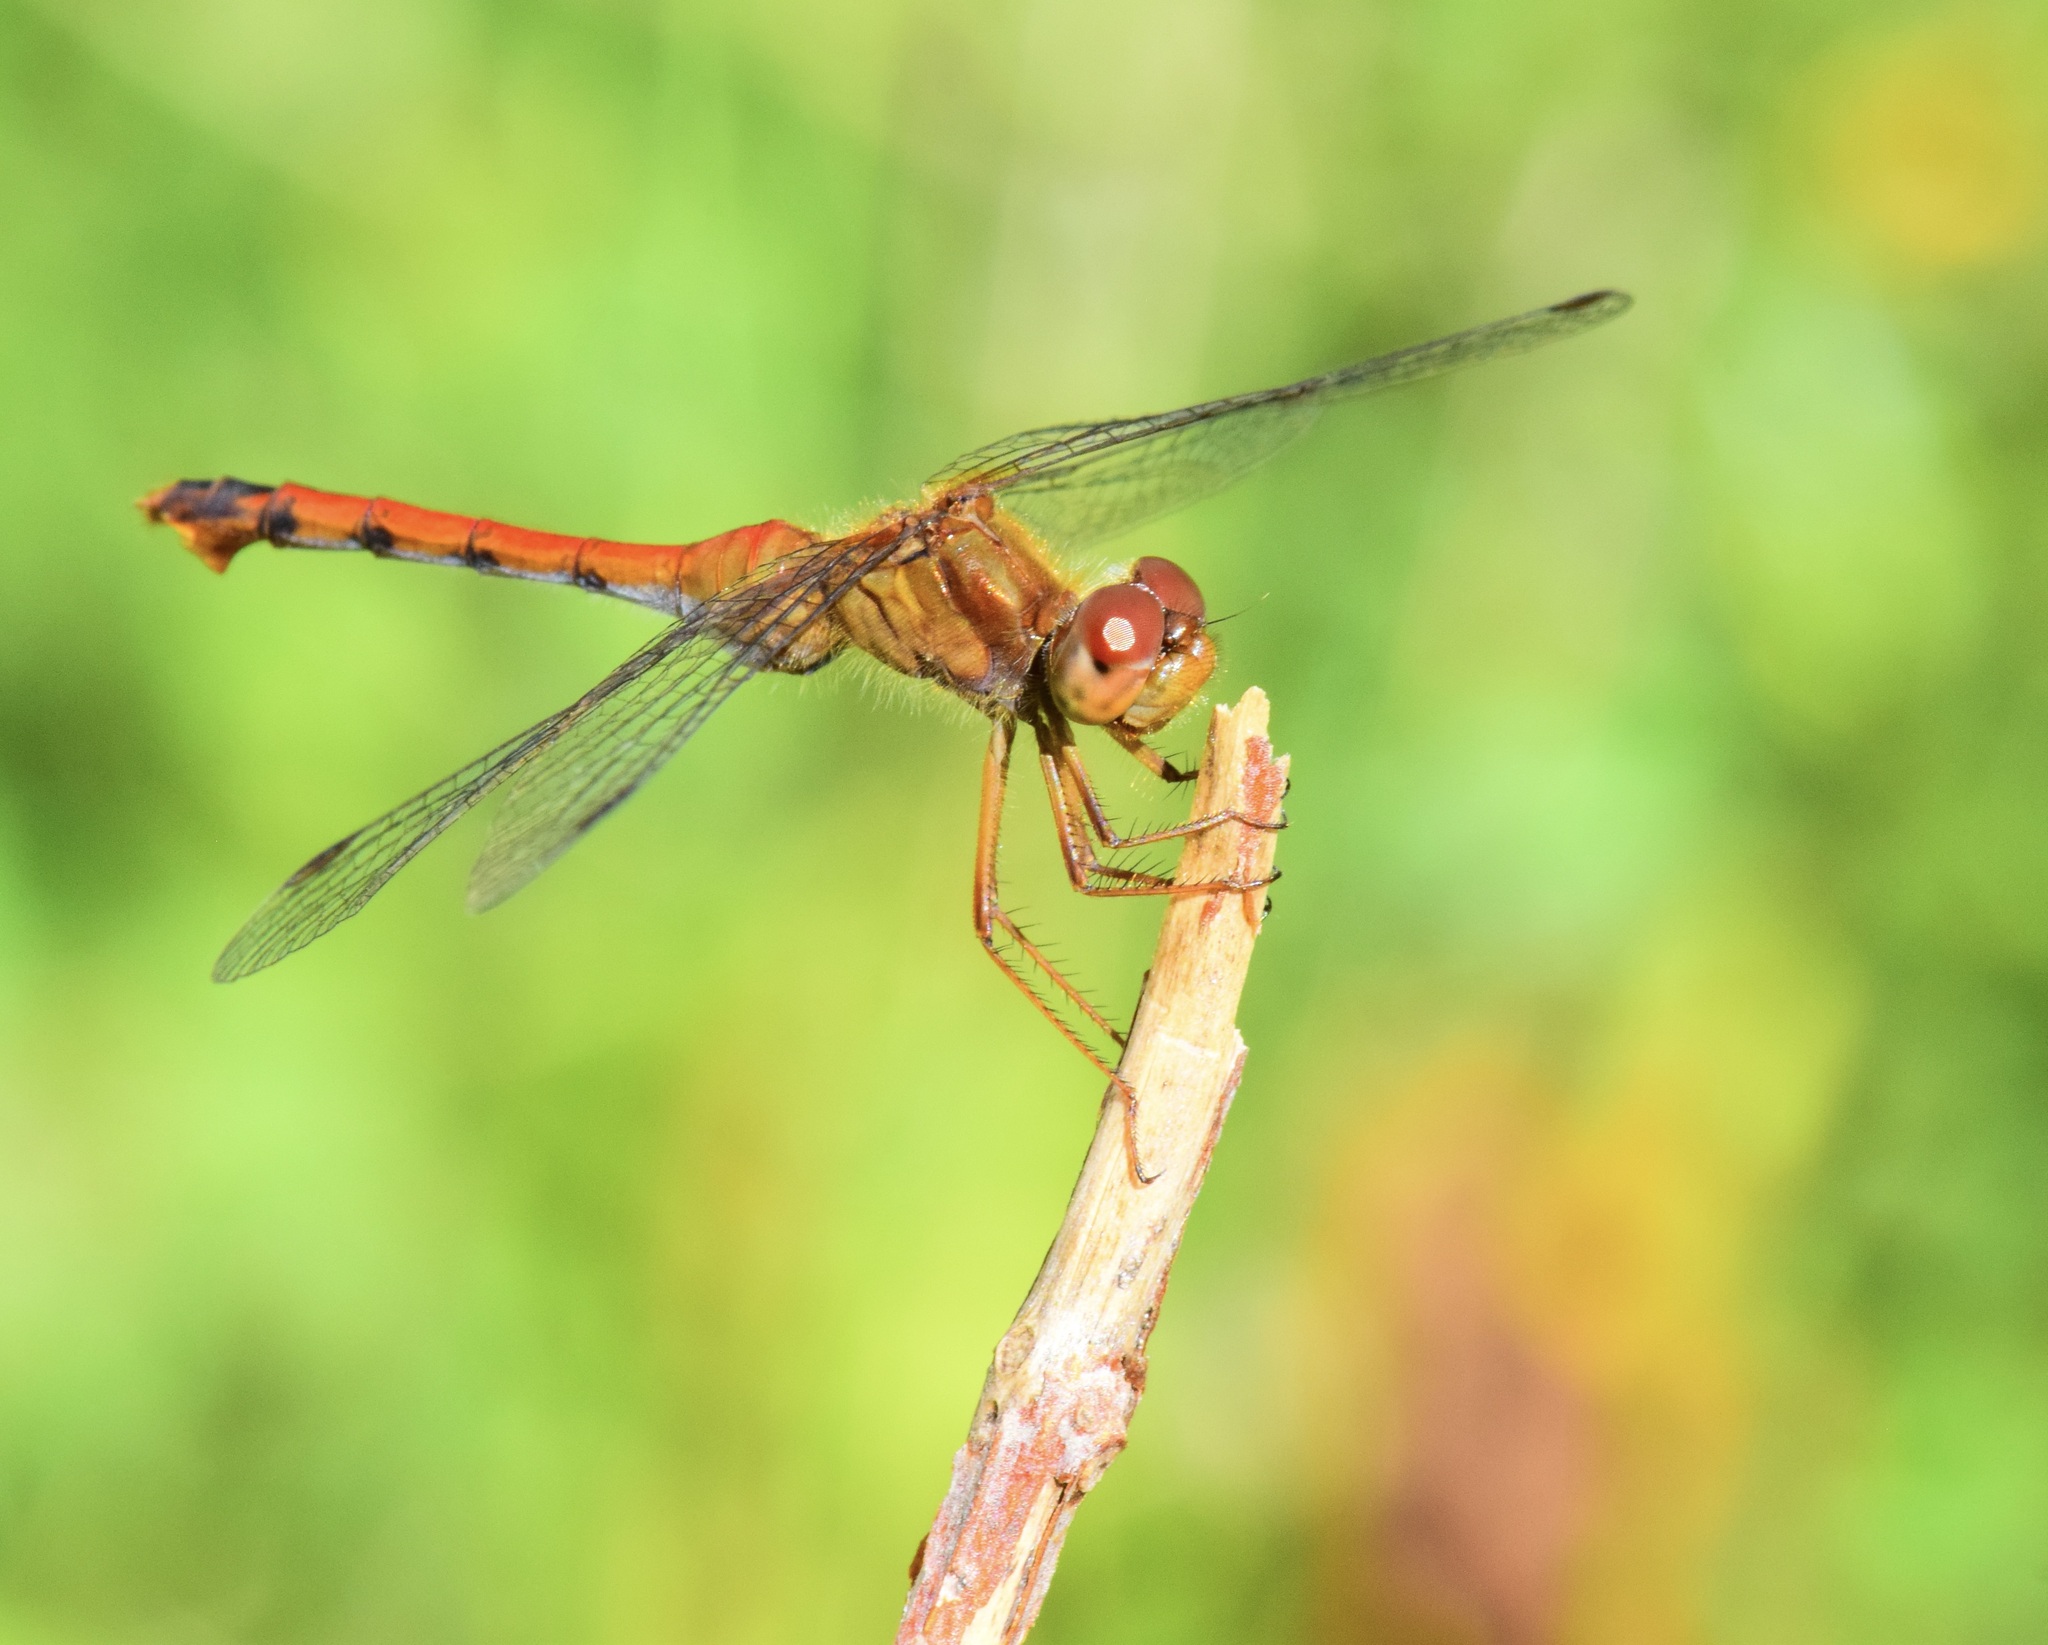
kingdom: Animalia
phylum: Arthropoda
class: Insecta
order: Odonata
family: Libellulidae
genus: Sympetrum
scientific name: Sympetrum vicinum
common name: Autumn meadowhawk
